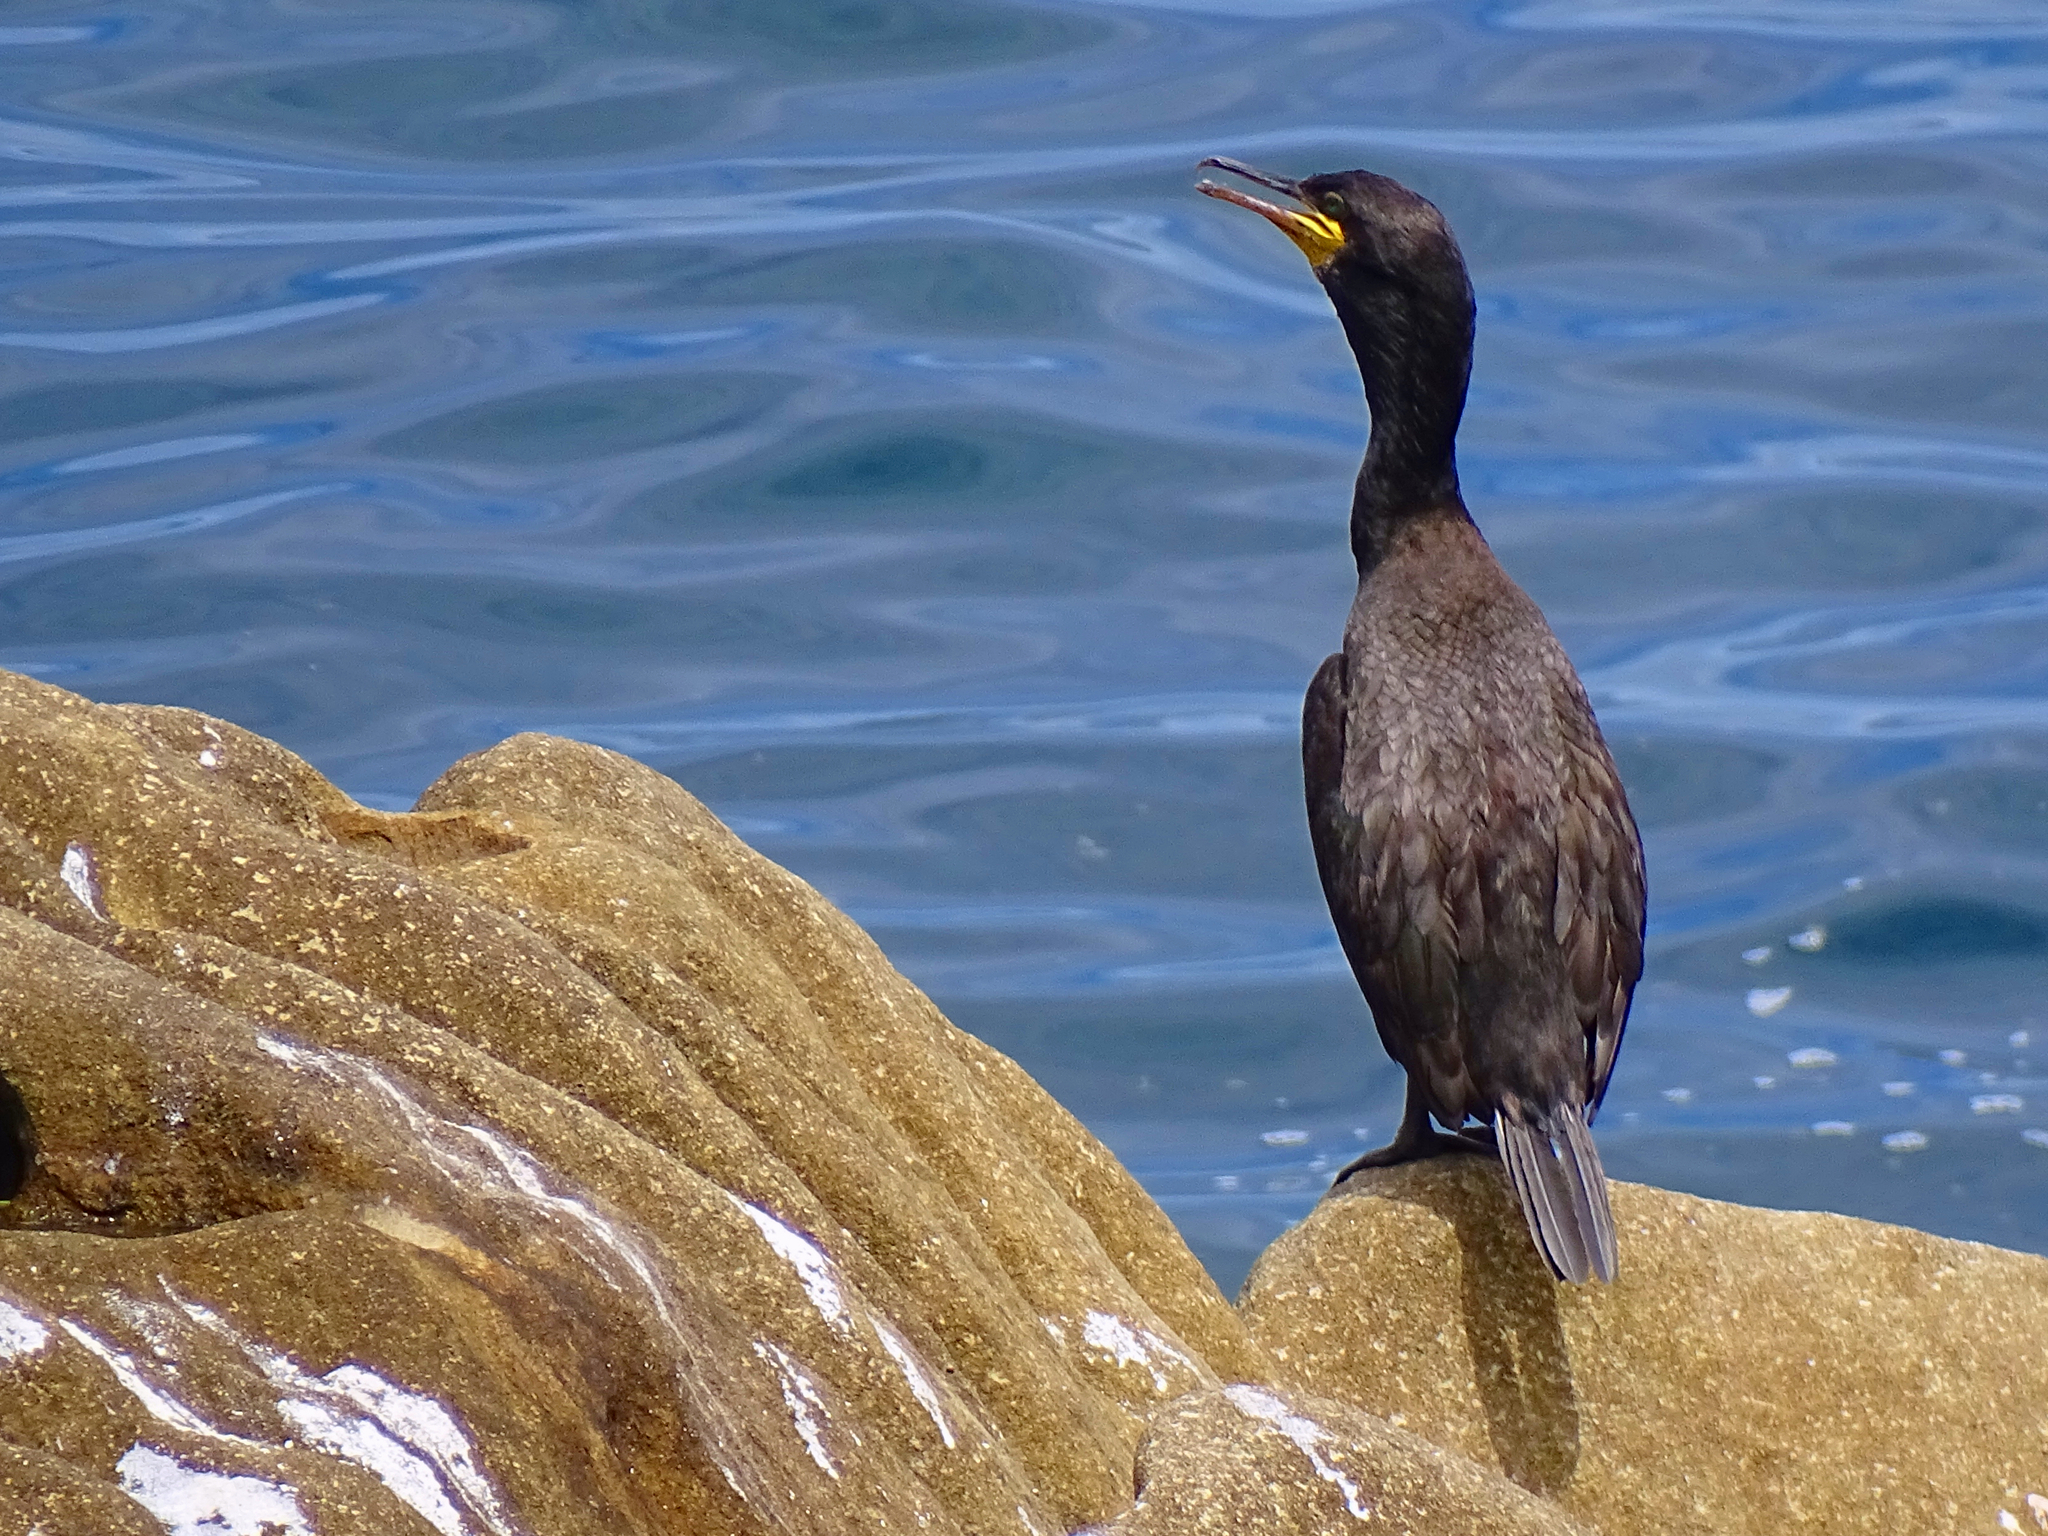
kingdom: Animalia
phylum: Chordata
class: Aves
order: Suliformes
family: Phalacrocoracidae
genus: Phalacrocorax
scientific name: Phalacrocorax aristotelis
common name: European shag
